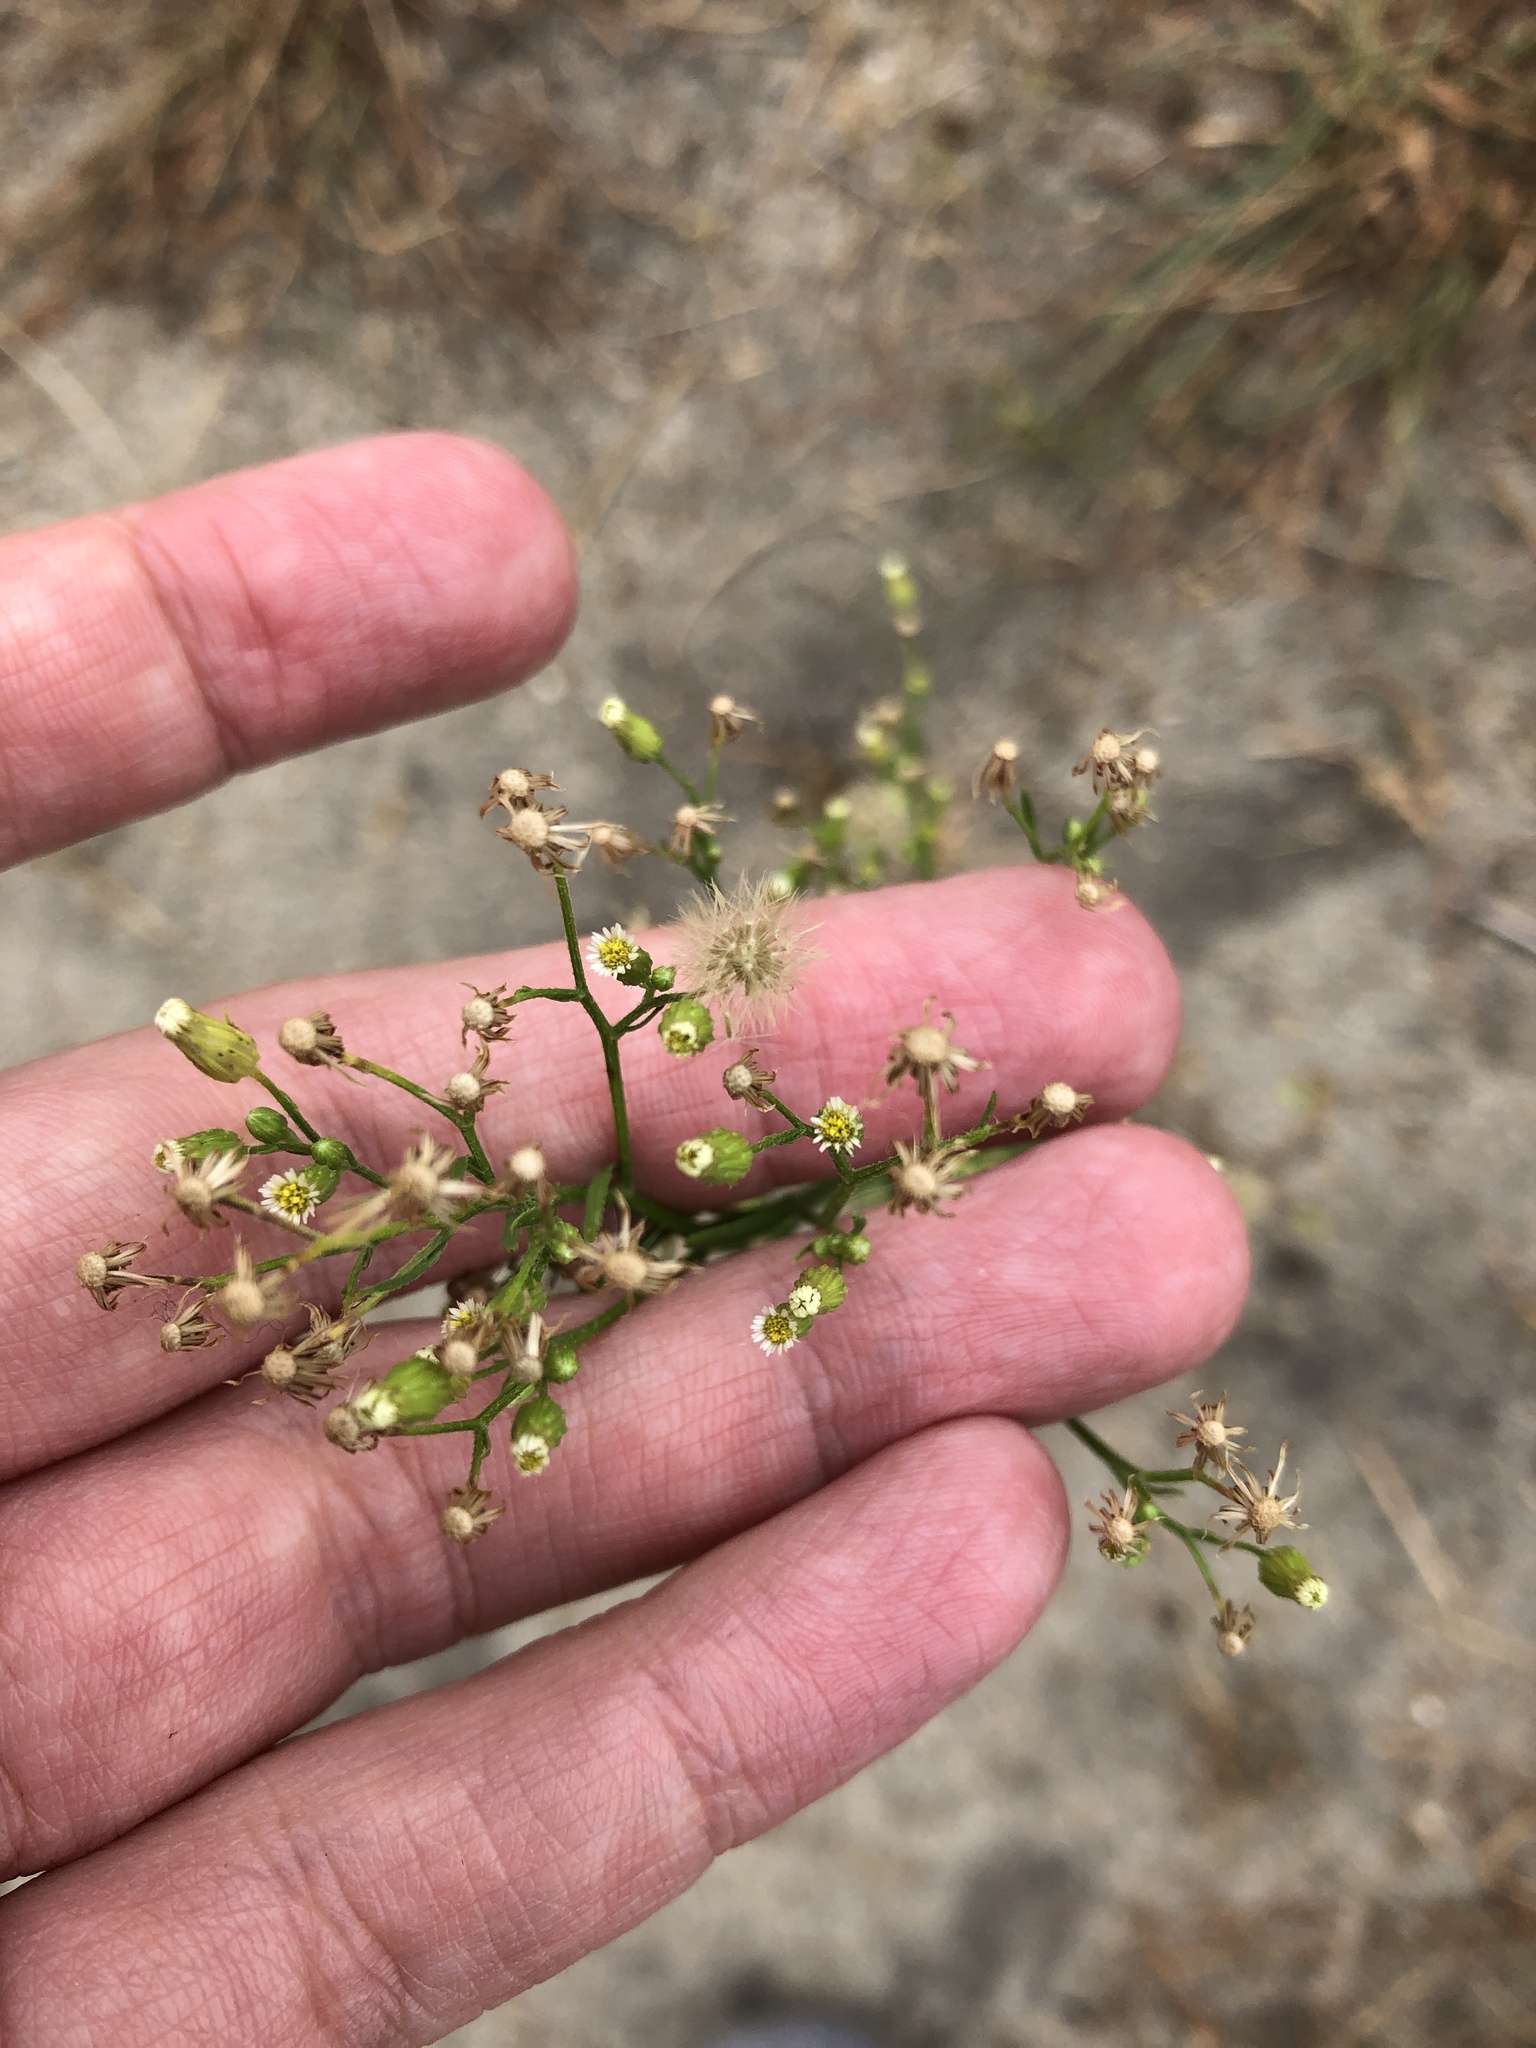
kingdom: Plantae
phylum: Tracheophyta
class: Magnoliopsida
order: Asterales
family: Asteraceae
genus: Erigeron
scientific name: Erigeron canadensis
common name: Canadian fleabane
